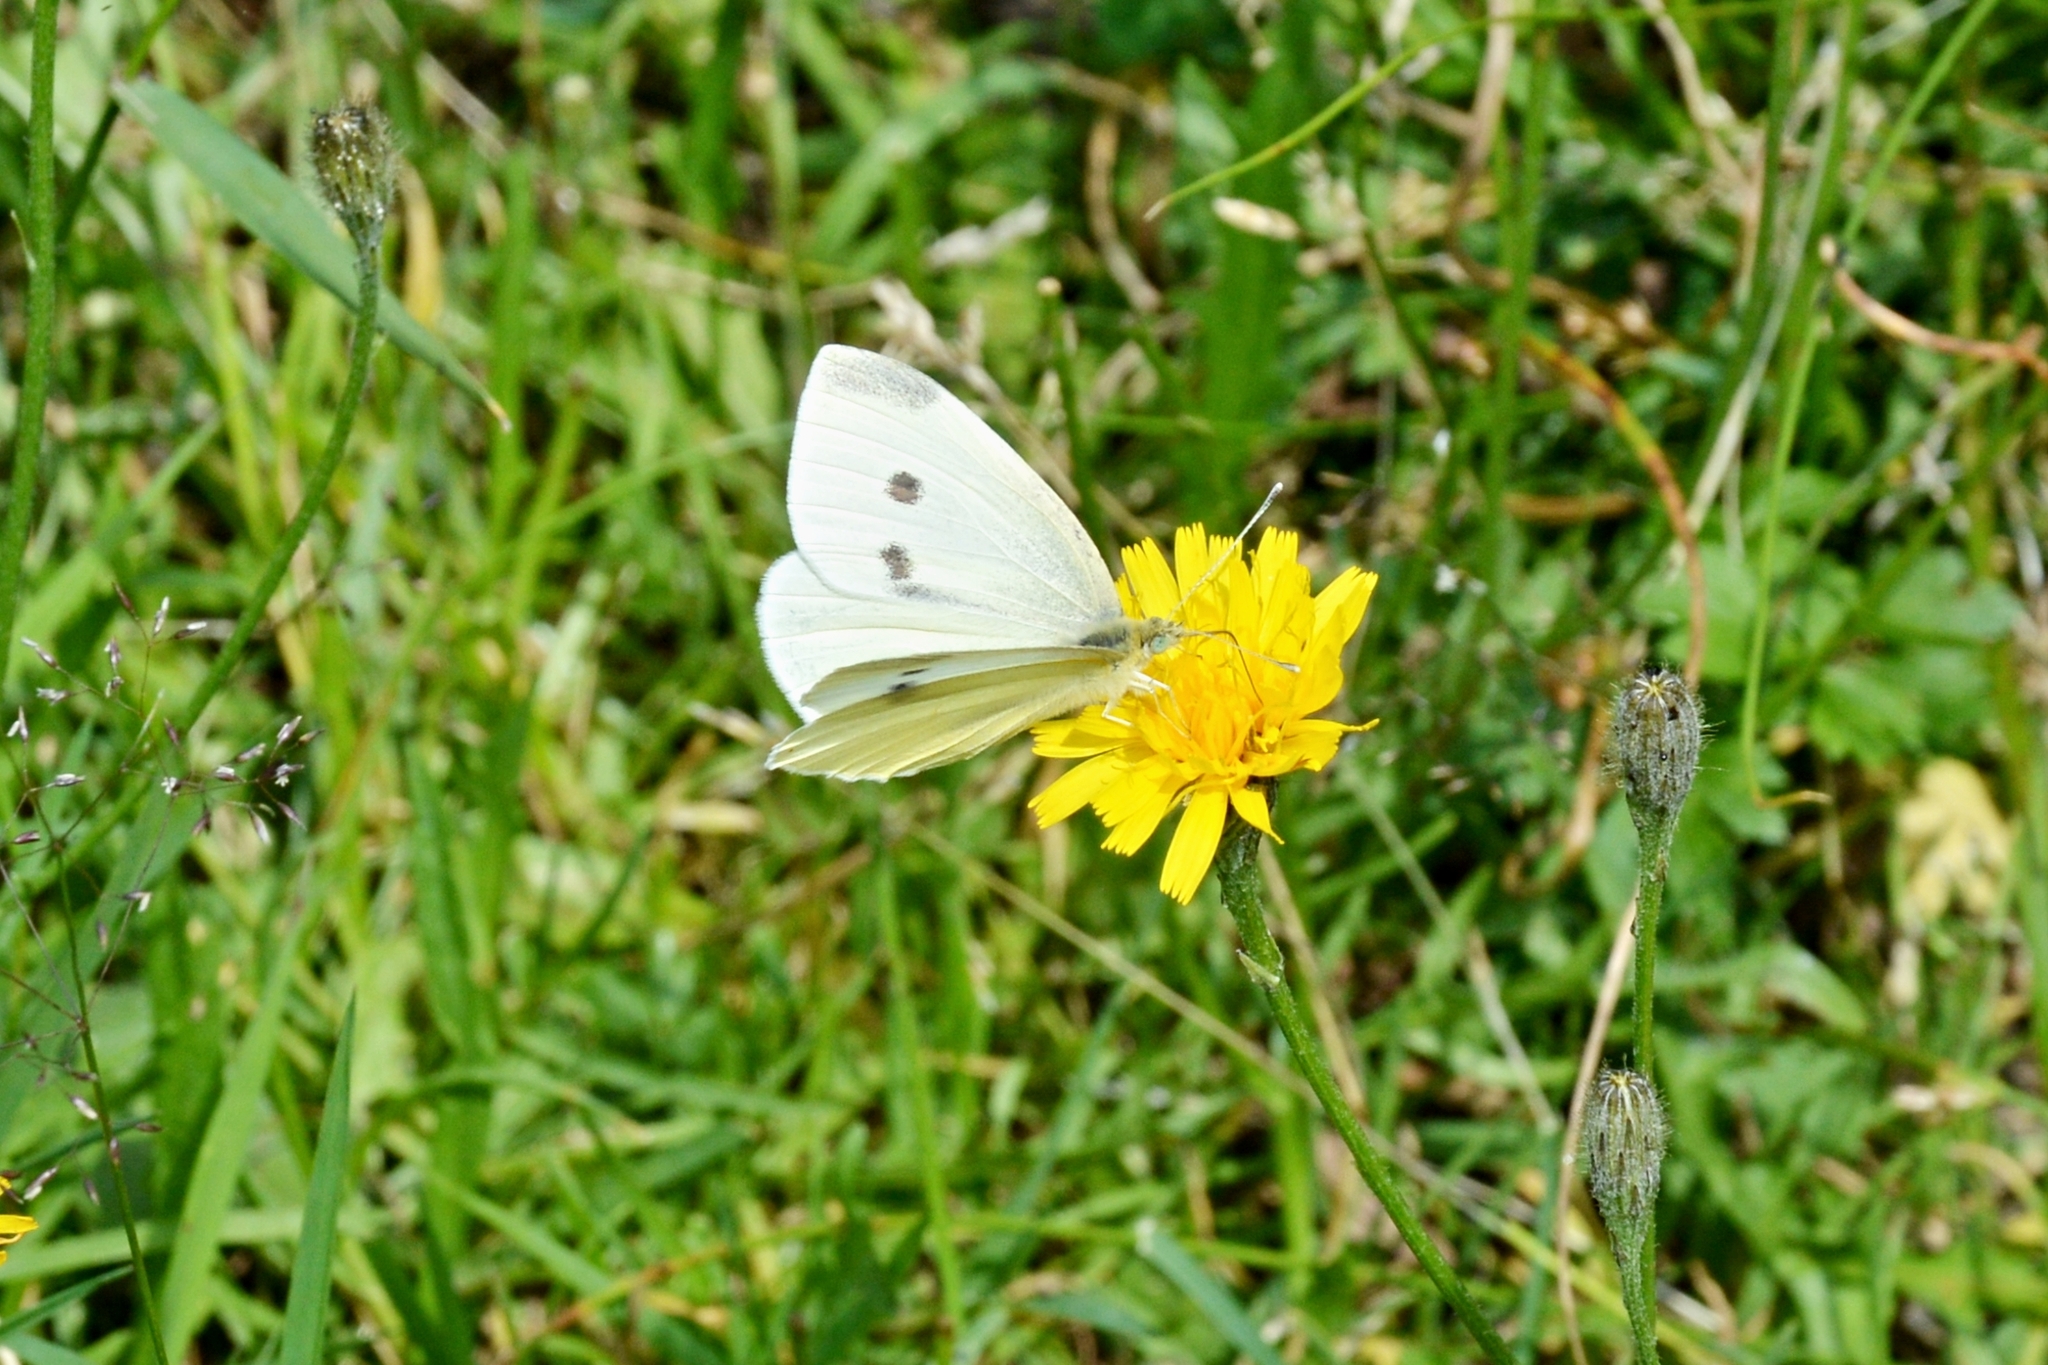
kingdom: Animalia
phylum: Arthropoda
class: Insecta
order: Lepidoptera
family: Pieridae
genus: Pieris
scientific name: Pieris rapae
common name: Small white
